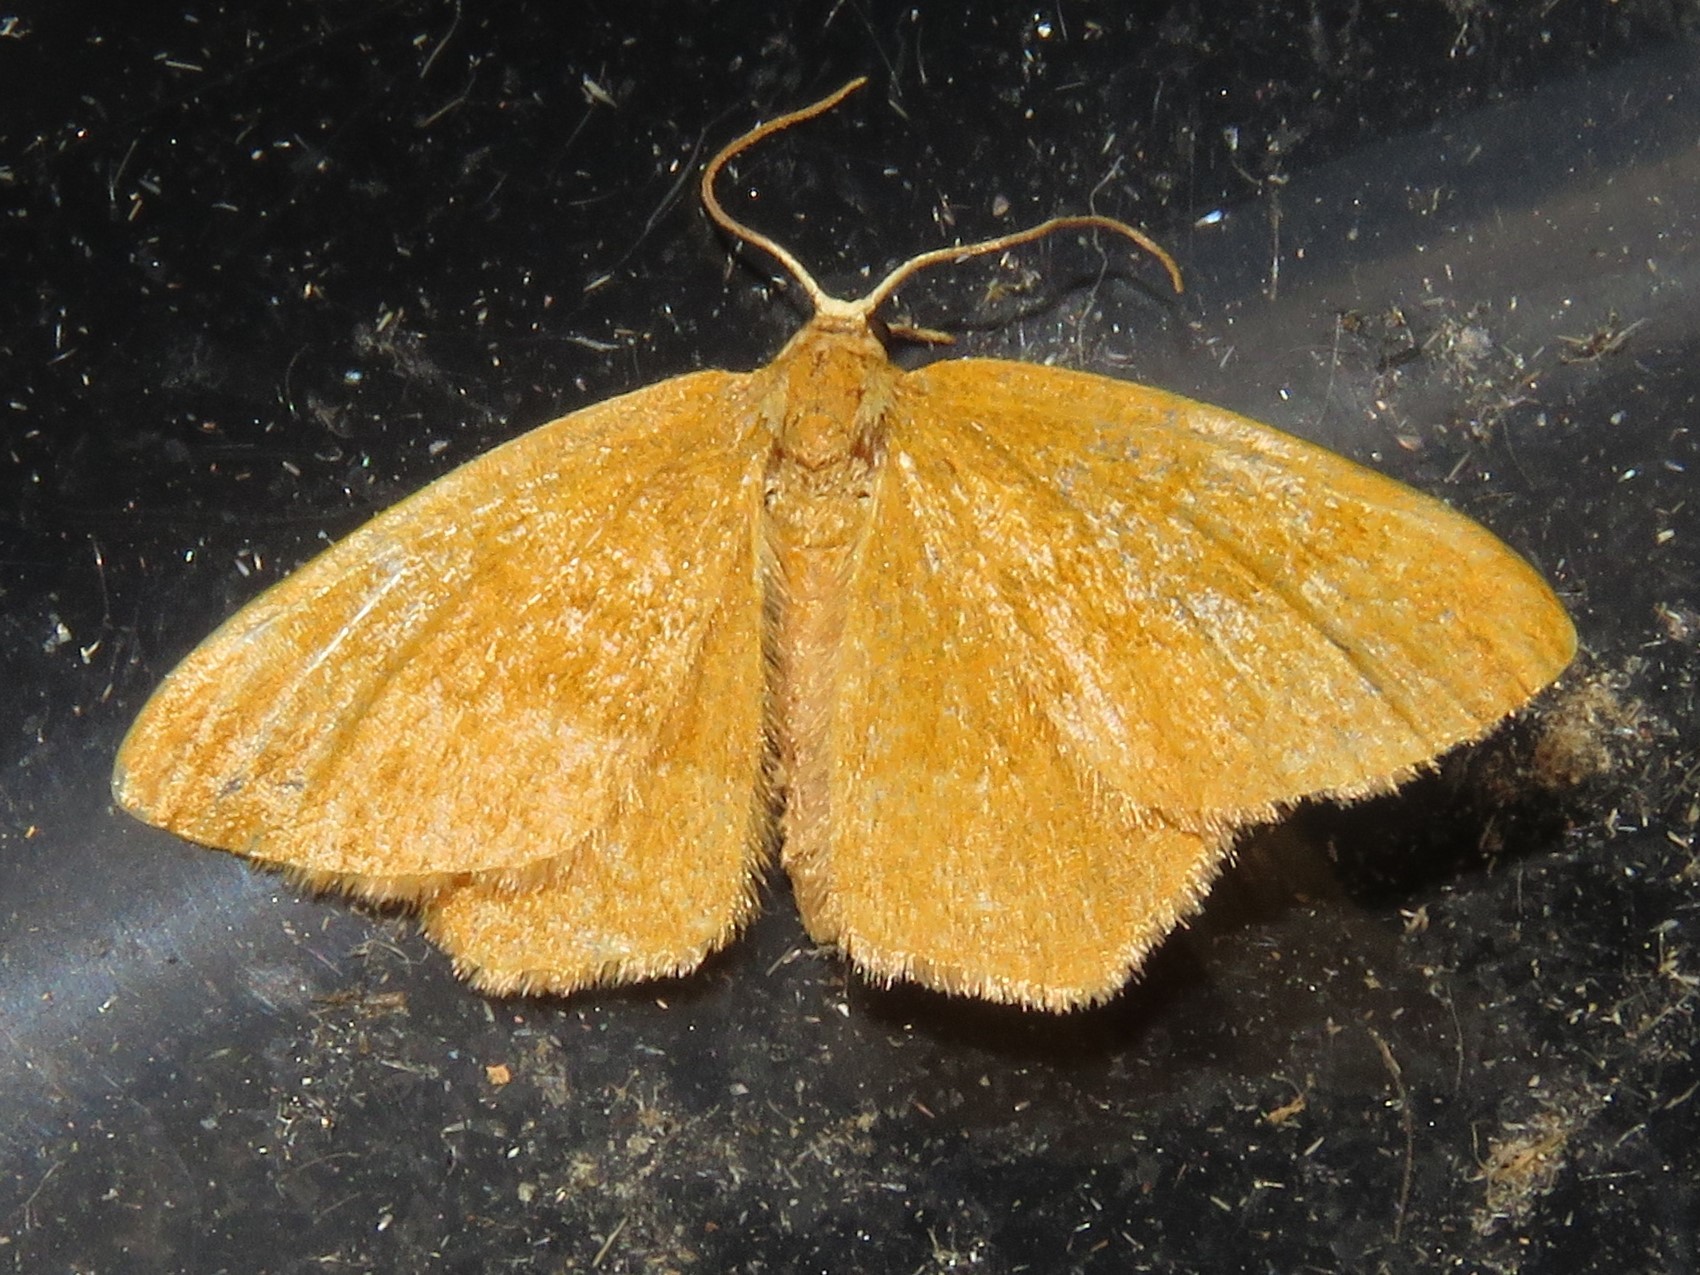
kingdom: Animalia
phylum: Arthropoda
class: Insecta
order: Lepidoptera
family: Geometridae
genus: Thalera
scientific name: Thalera pistasciaria
